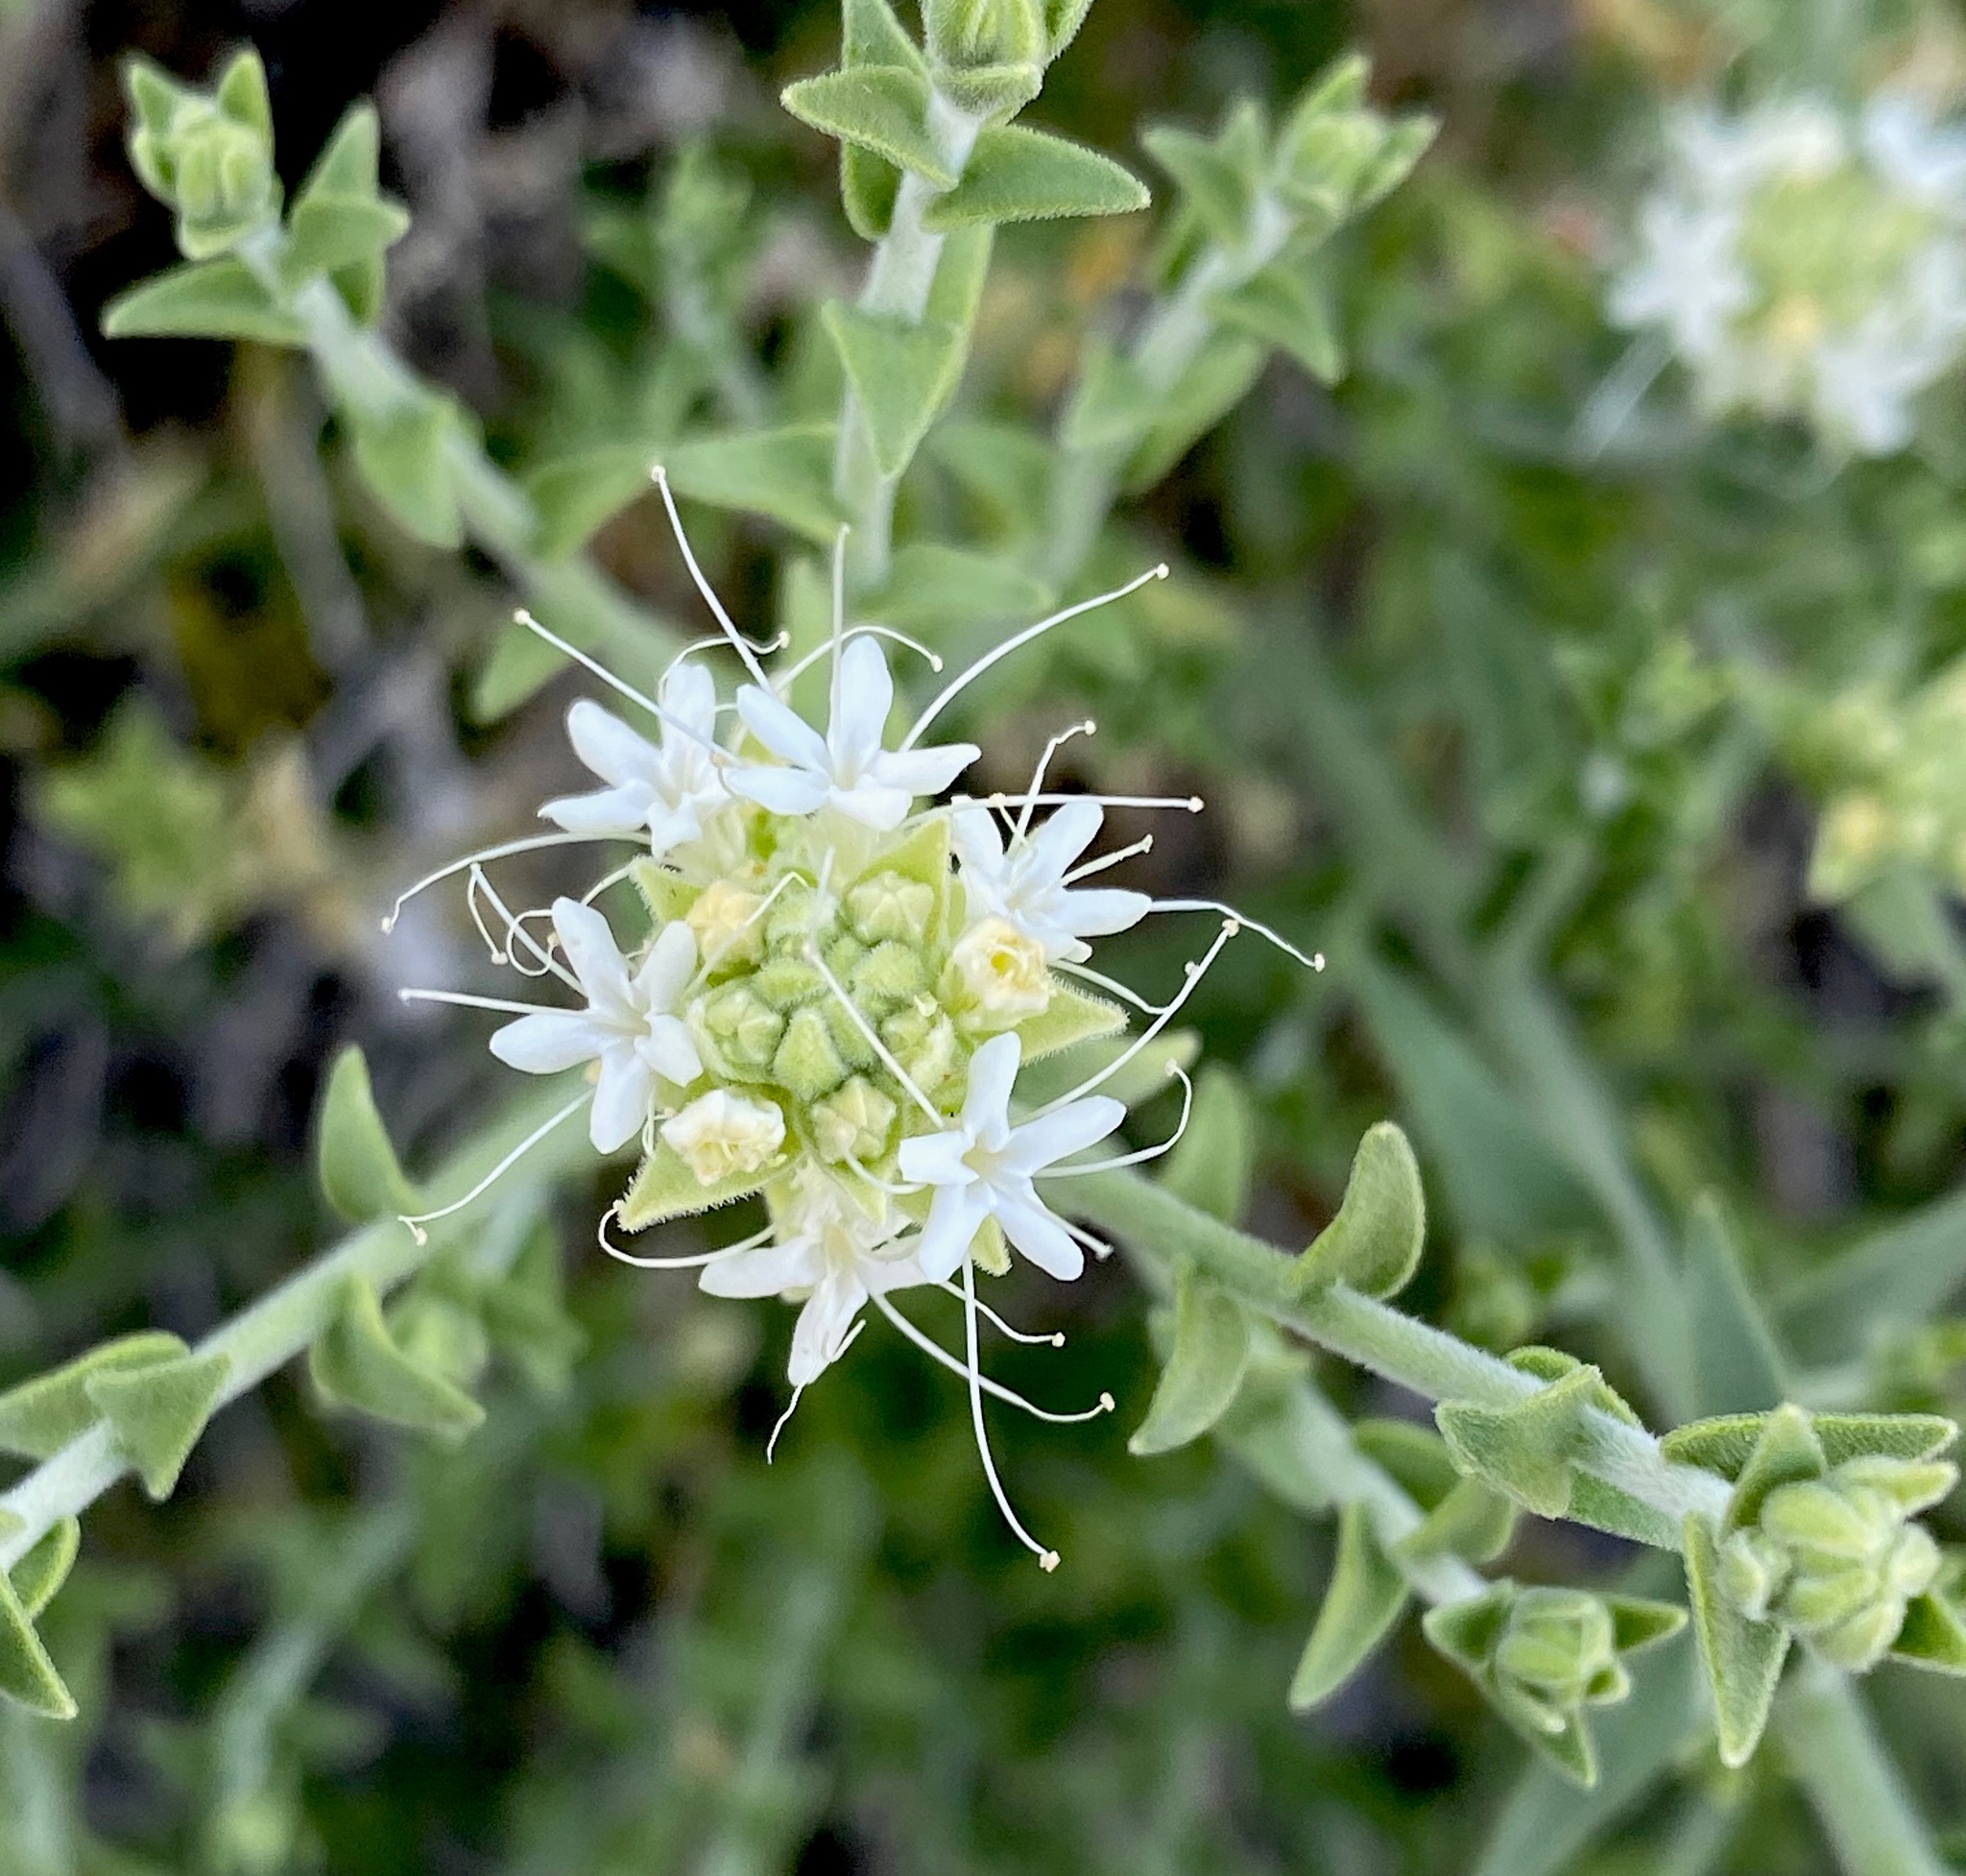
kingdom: Plantae
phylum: Tracheophyta
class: Magnoliopsida
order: Cornales
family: Loasaceae
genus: Petalonyx
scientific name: Petalonyx thurberi
